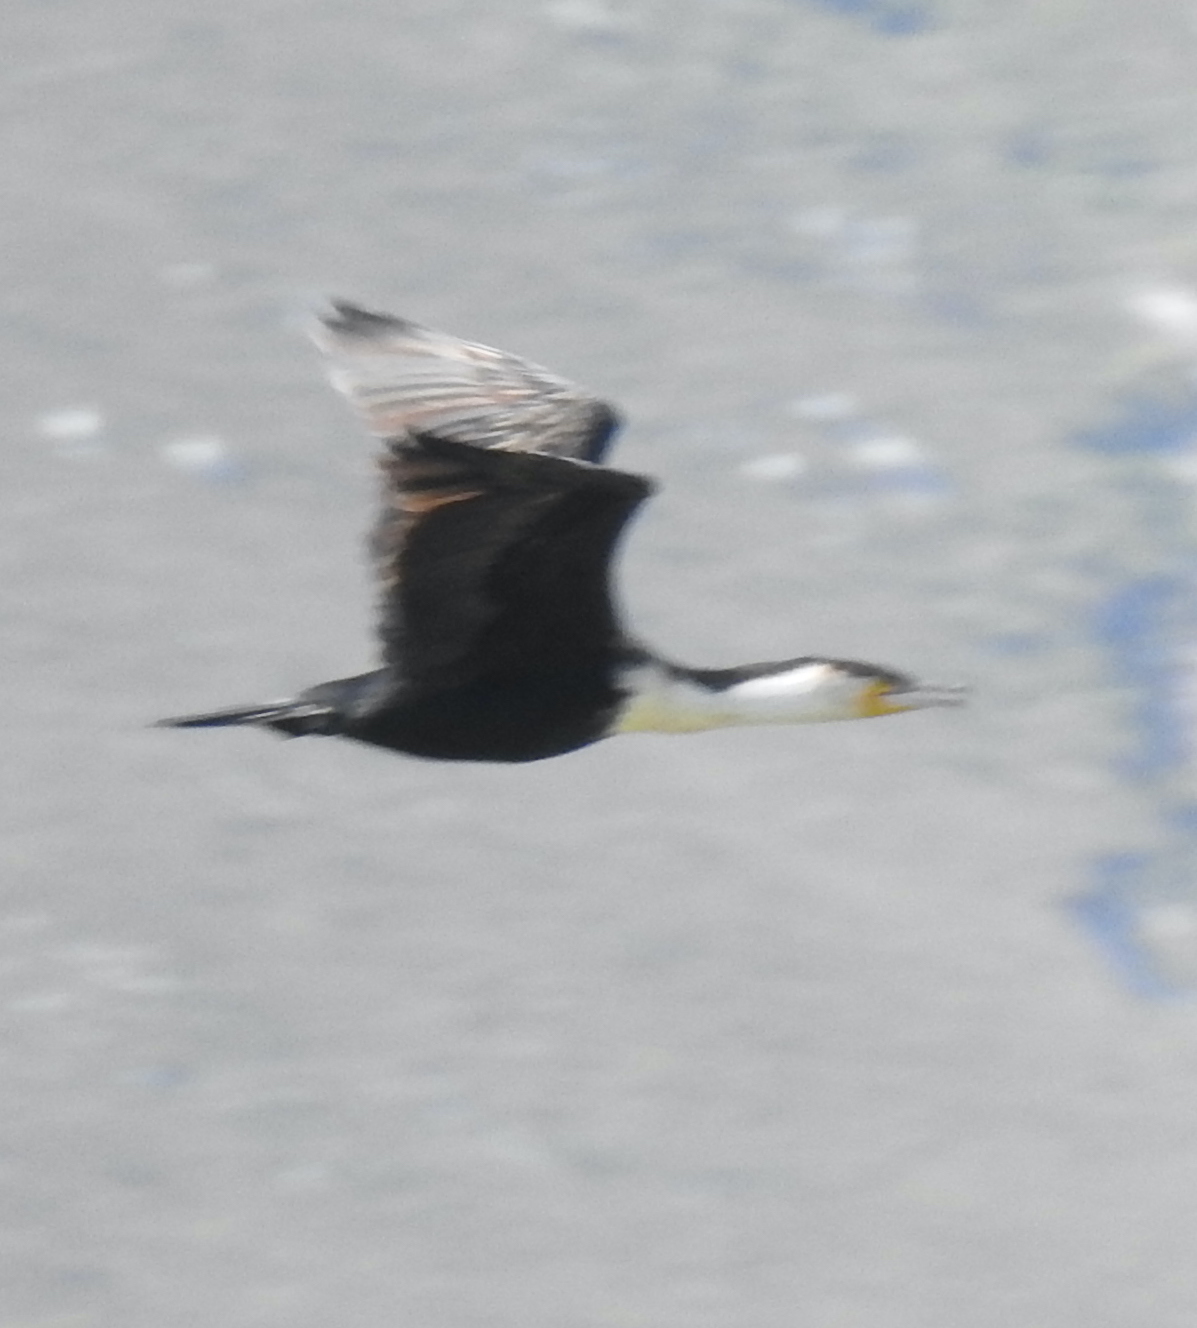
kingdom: Animalia
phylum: Chordata
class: Aves
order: Suliformes
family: Phalacrocoracidae
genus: Phalacrocorax
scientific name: Phalacrocorax carbo
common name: Great cormorant
